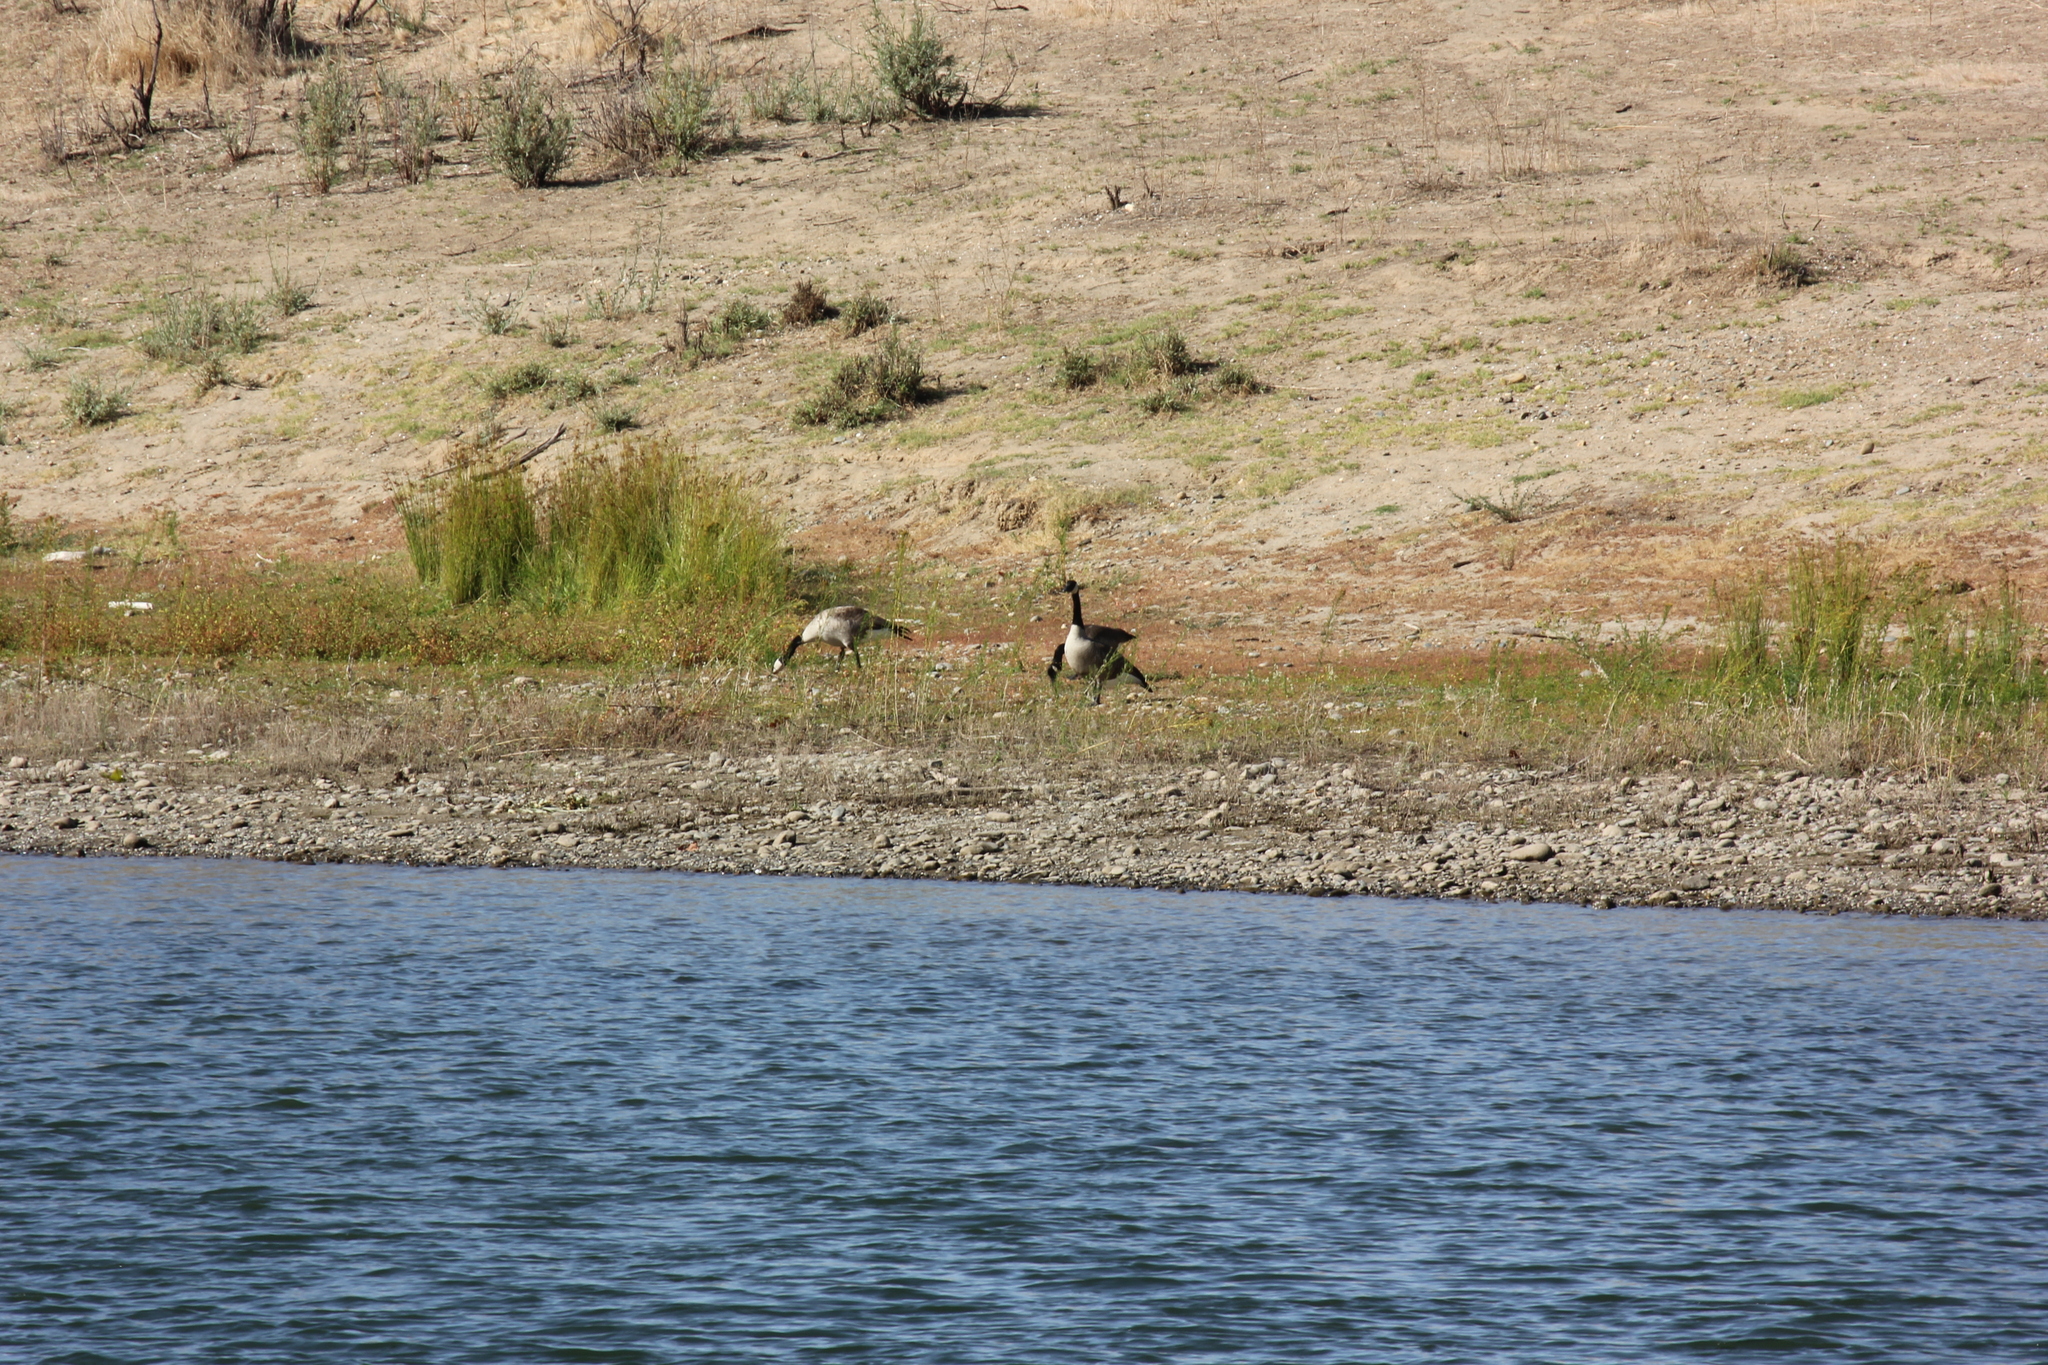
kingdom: Animalia
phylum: Chordata
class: Aves
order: Anseriformes
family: Anatidae
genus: Branta
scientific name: Branta canadensis
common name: Canada goose
